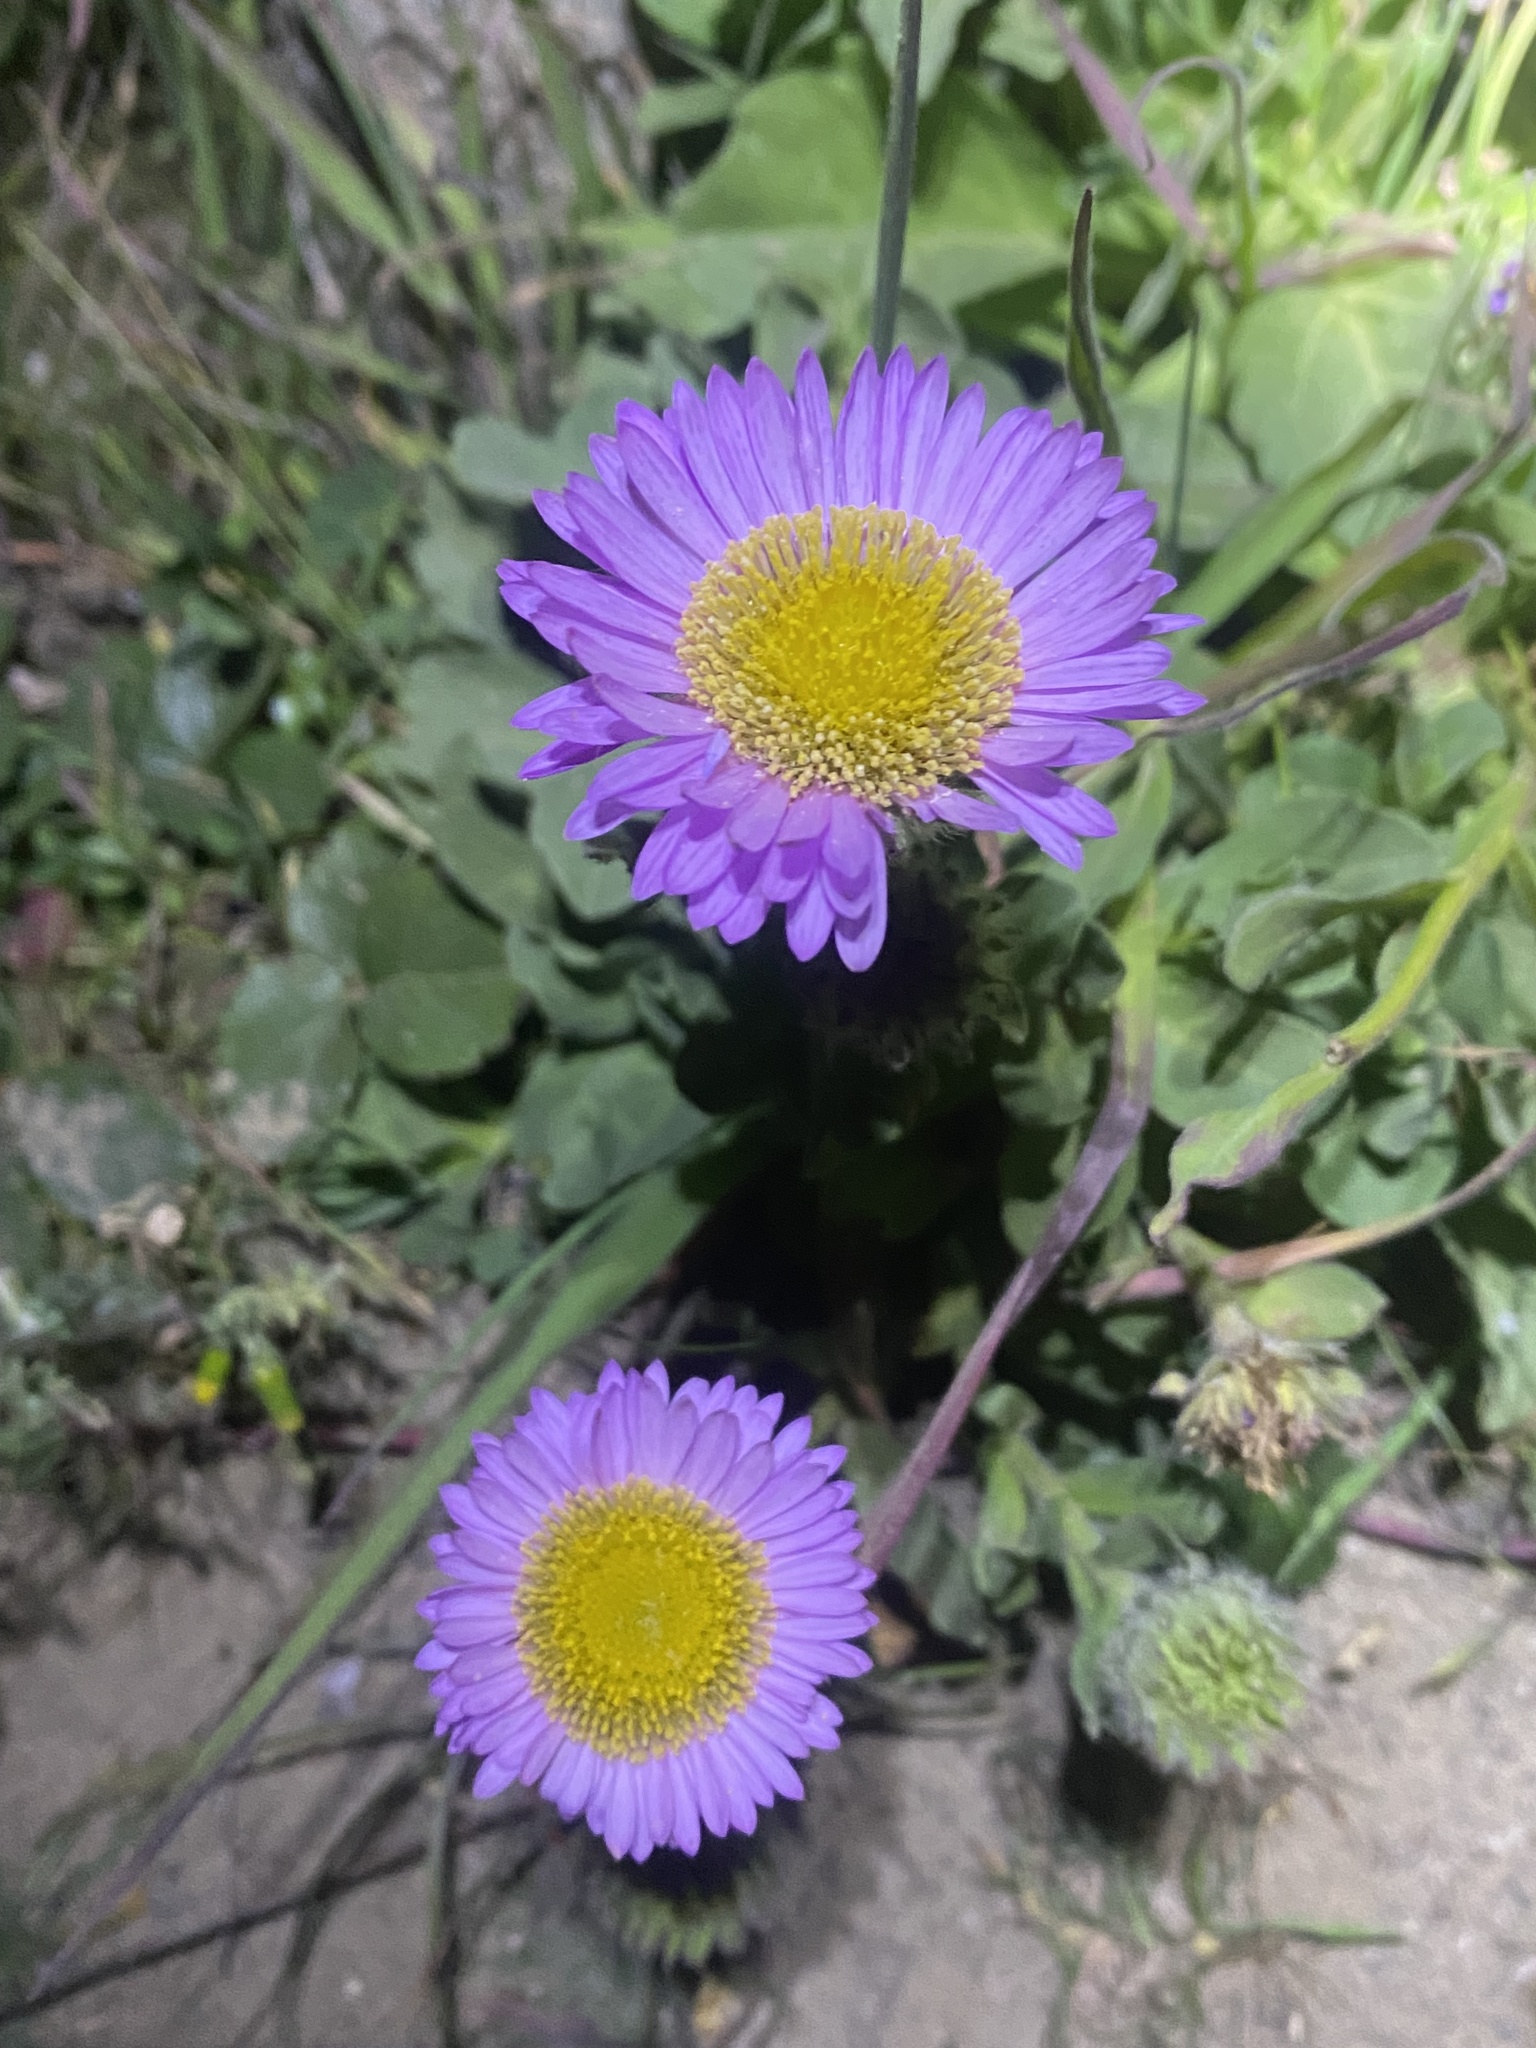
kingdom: Plantae
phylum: Tracheophyta
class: Magnoliopsida
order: Asterales
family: Asteraceae
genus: Erigeron
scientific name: Erigeron glaucus
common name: Seaside daisy
